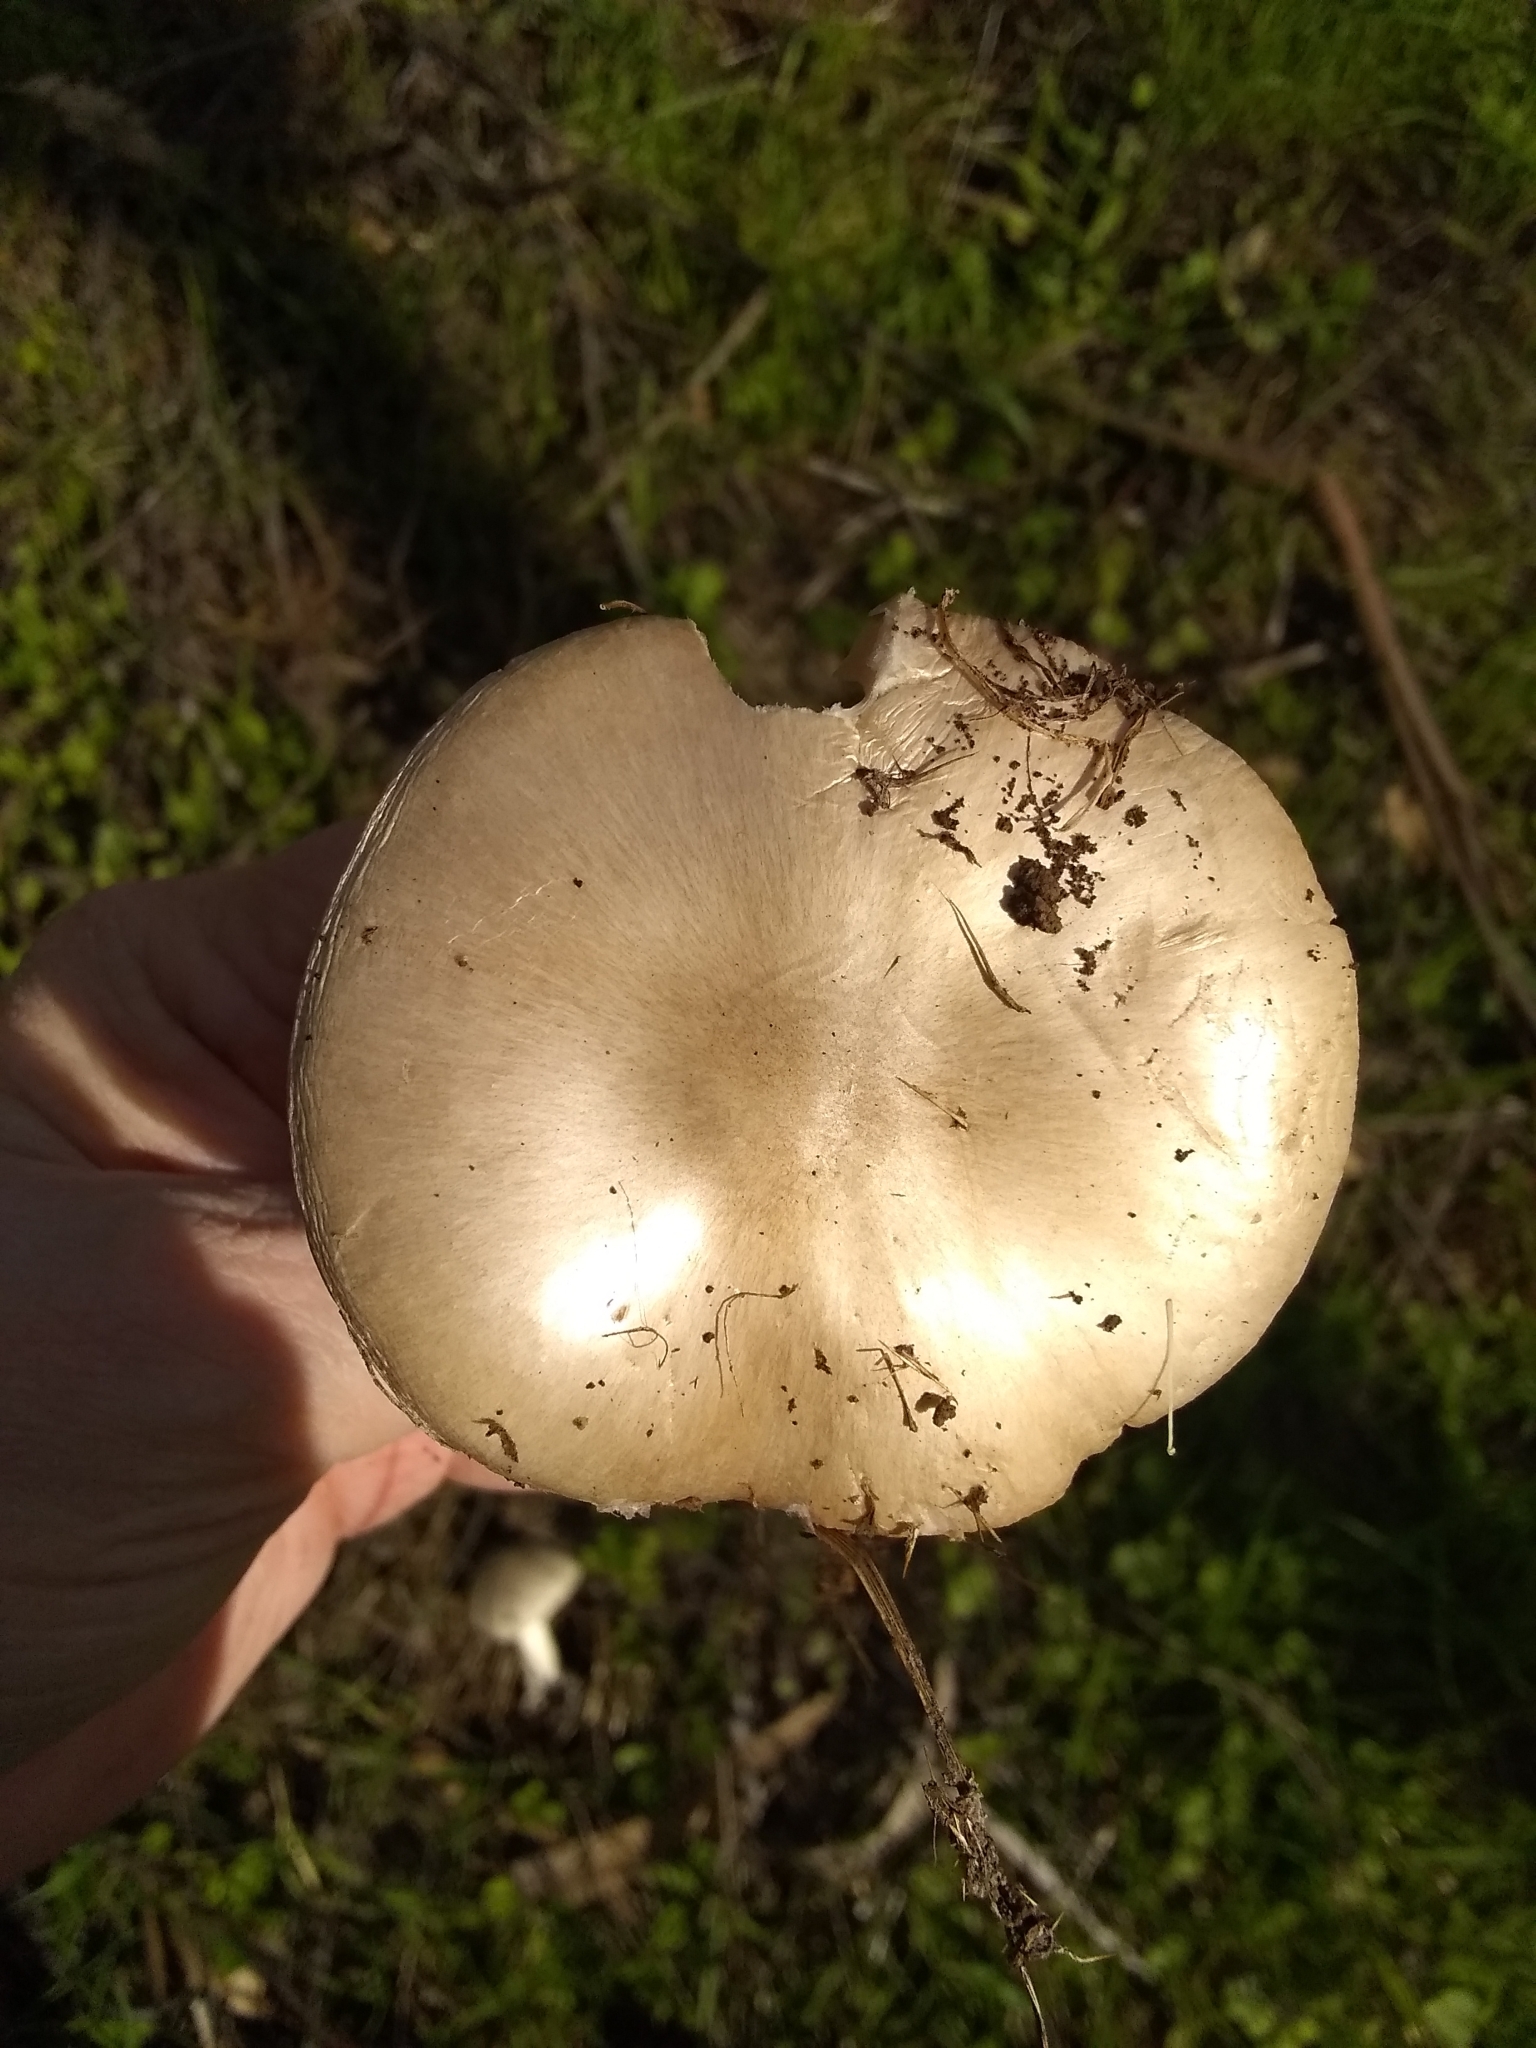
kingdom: Fungi
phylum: Basidiomycota
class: Agaricomycetes
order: Agaricales
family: Pluteaceae
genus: Volvopluteus
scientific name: Volvopluteus gloiocephalus
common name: Stubble rosegill
